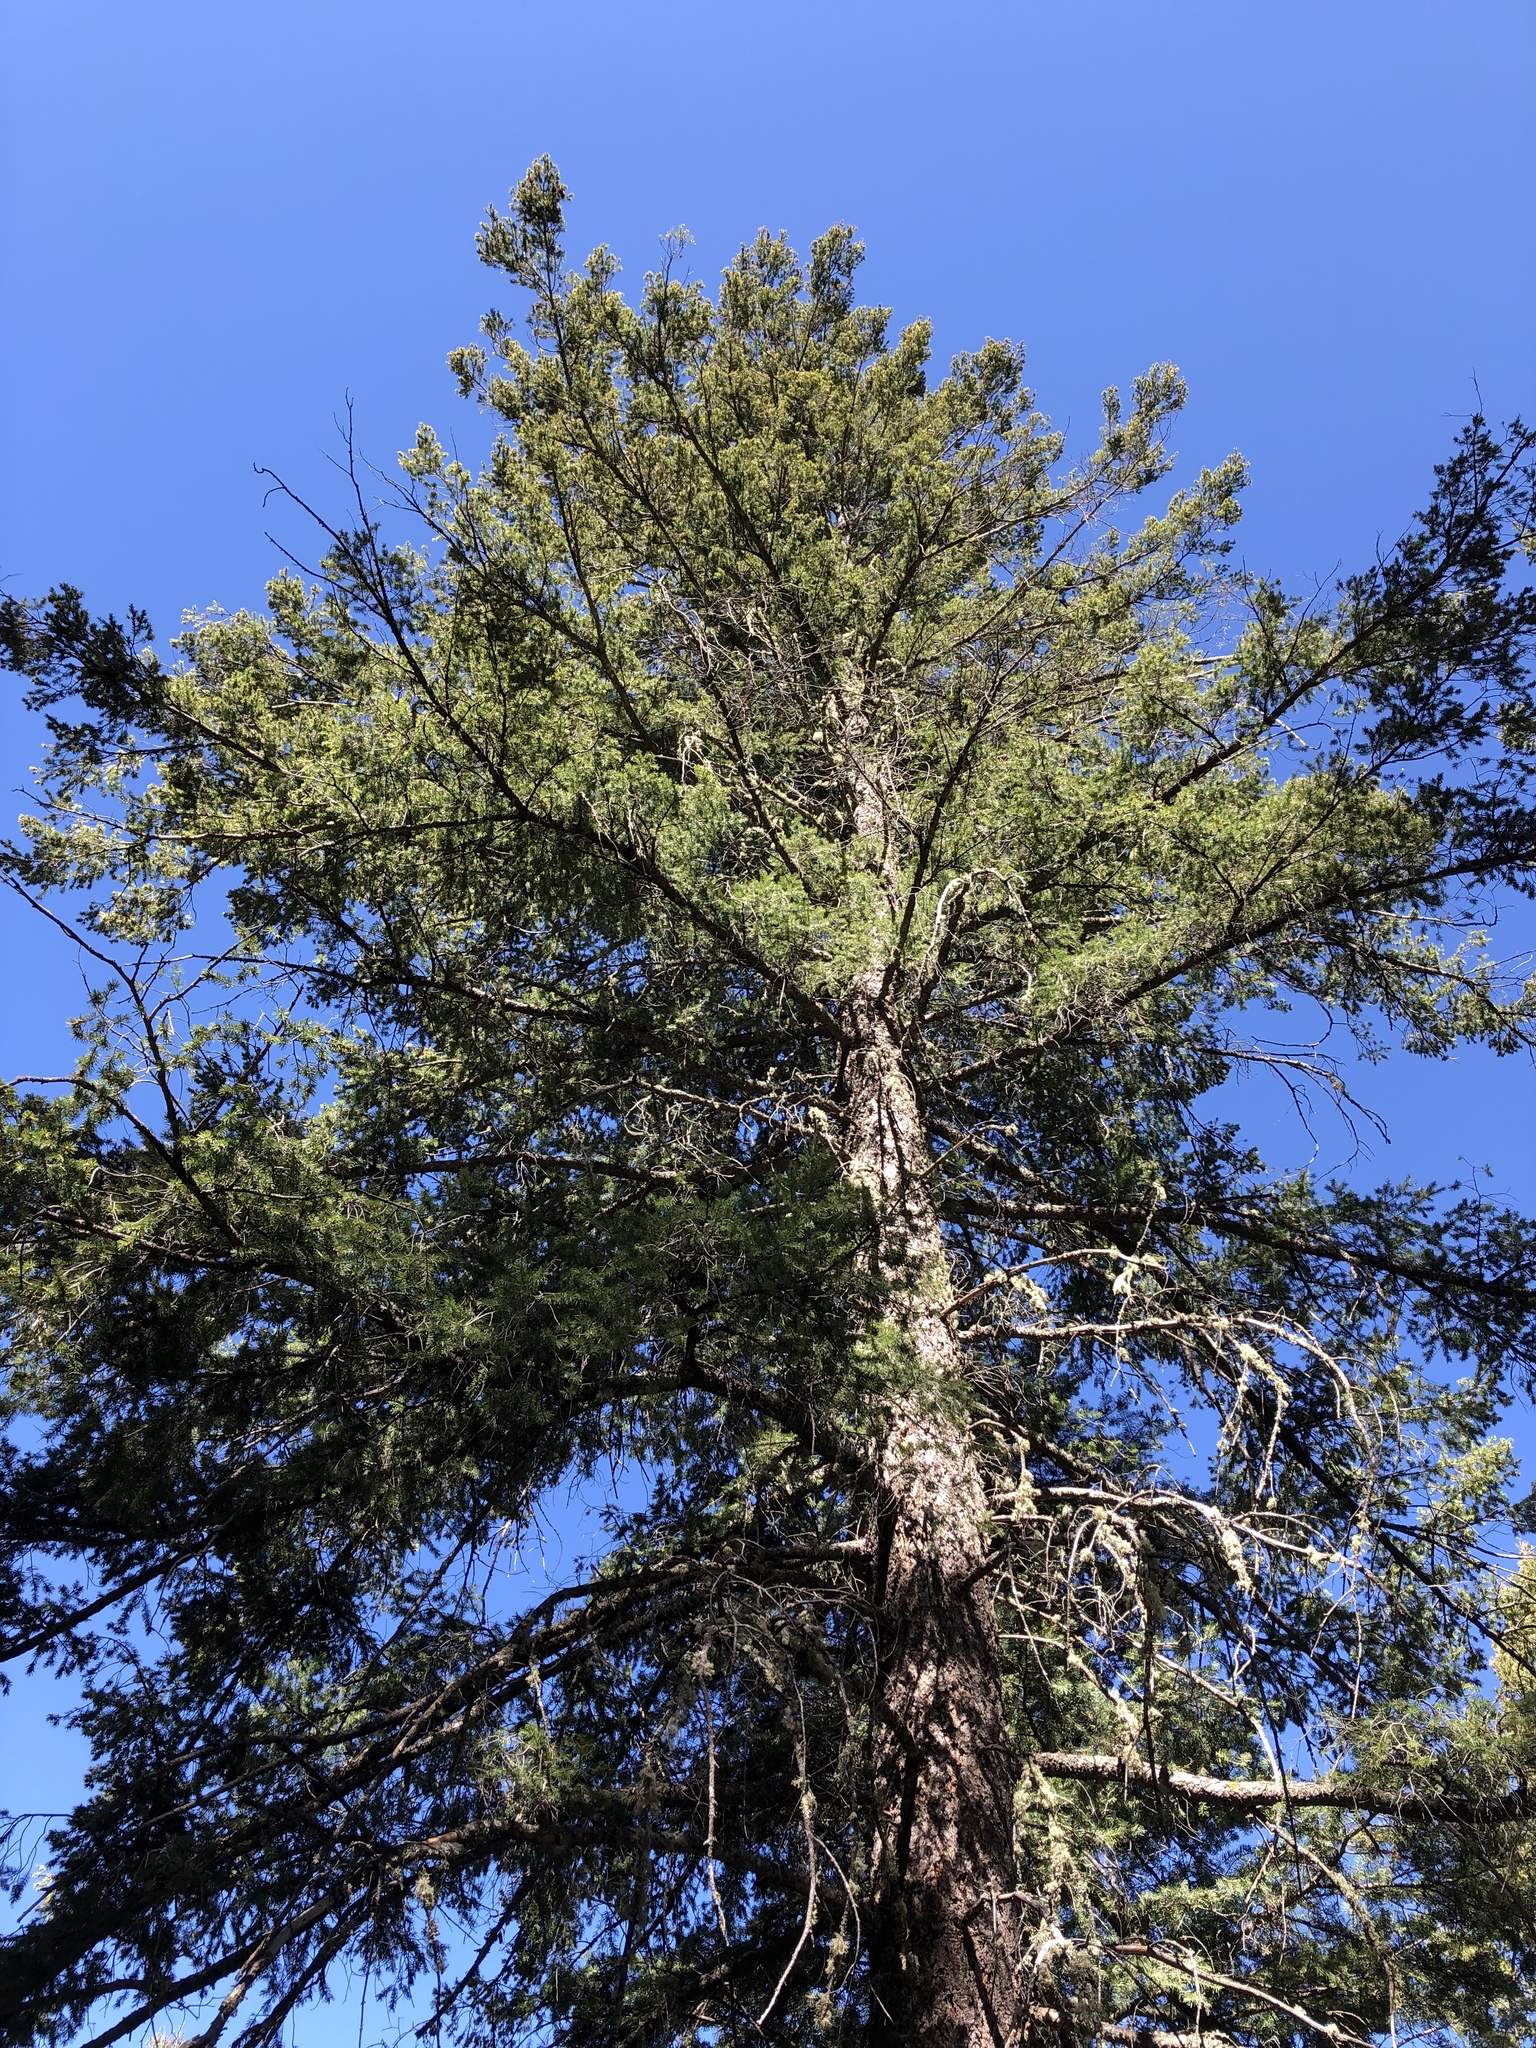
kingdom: Plantae
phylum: Tracheophyta
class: Pinopsida
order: Pinales
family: Pinaceae
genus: Abies
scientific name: Abies concolor
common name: Colorado fir
